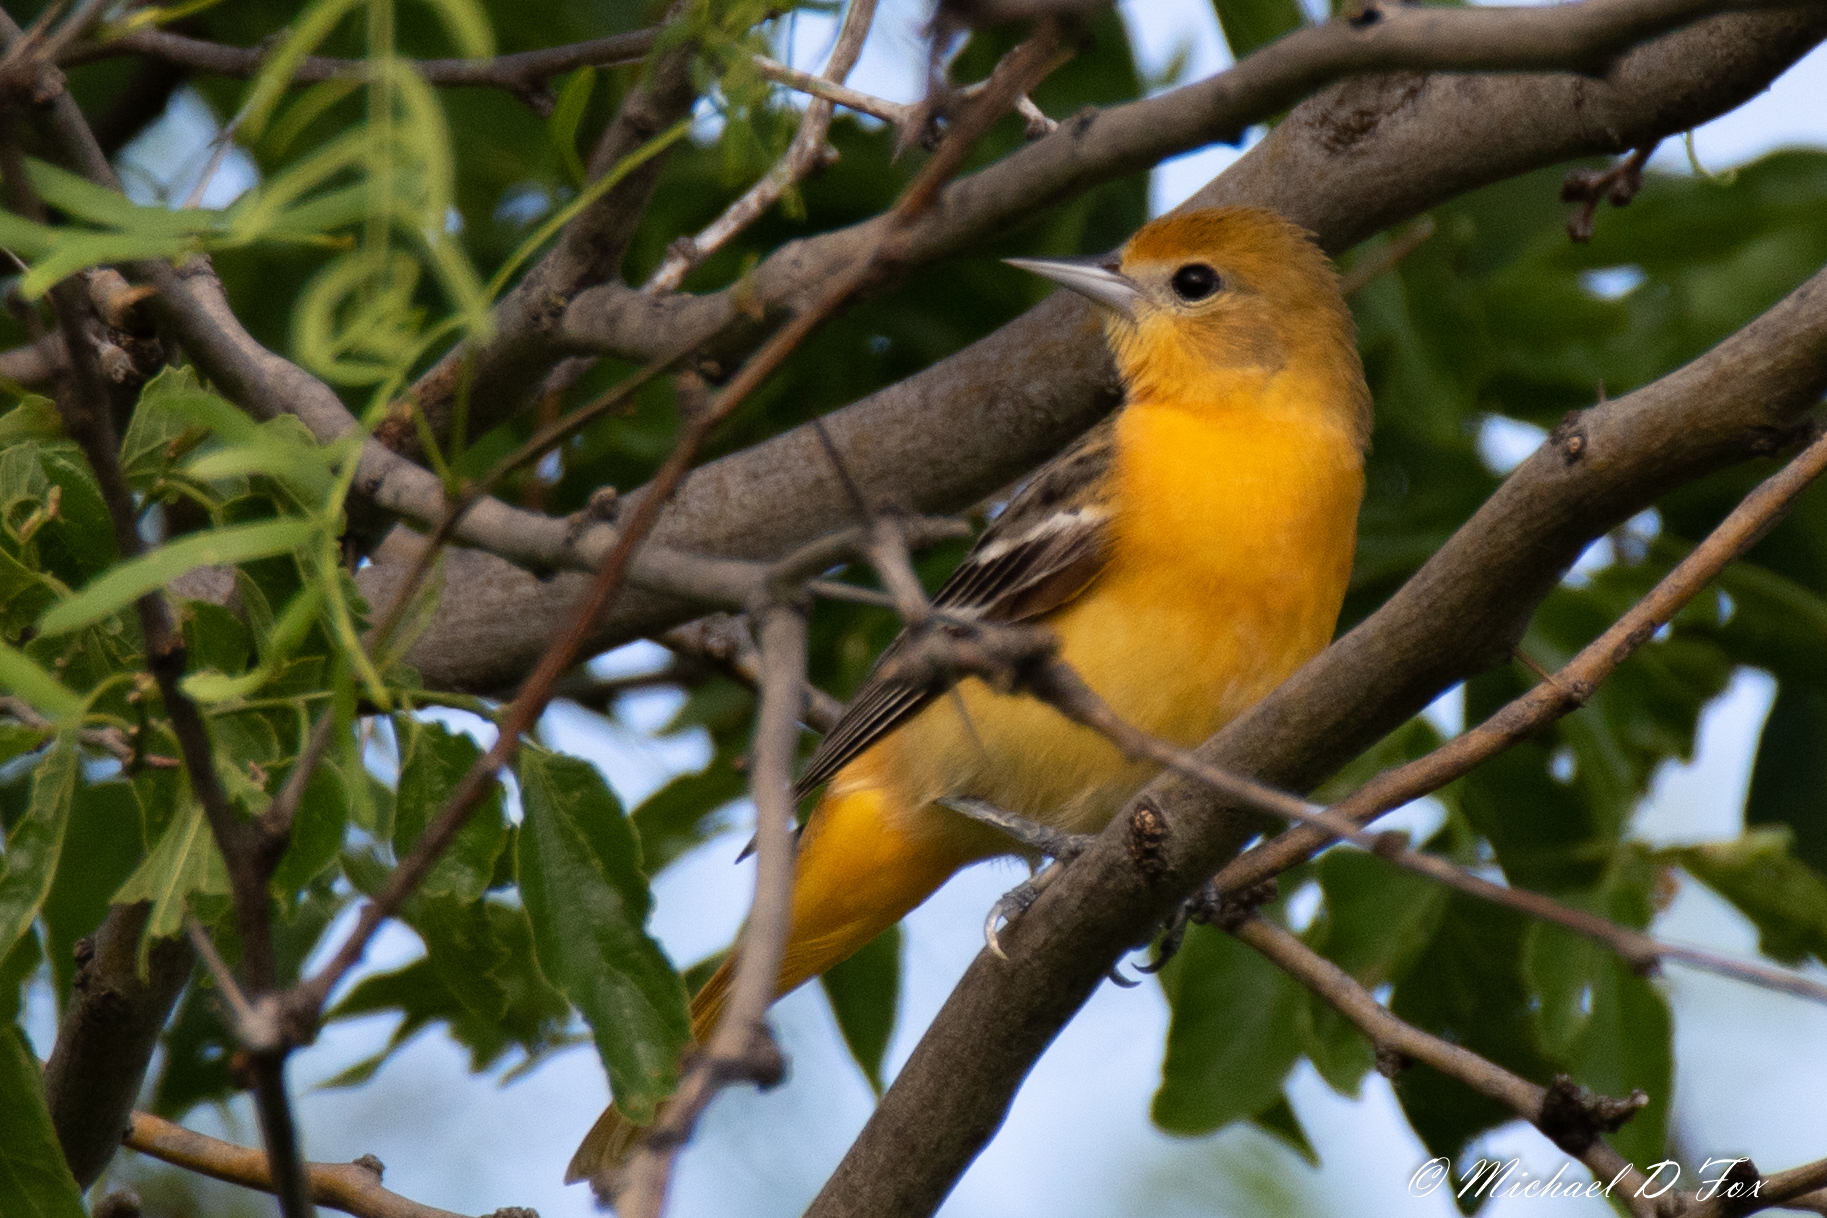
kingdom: Animalia
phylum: Chordata
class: Aves
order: Passeriformes
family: Icteridae
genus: Icterus
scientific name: Icterus galbula
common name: Baltimore oriole
